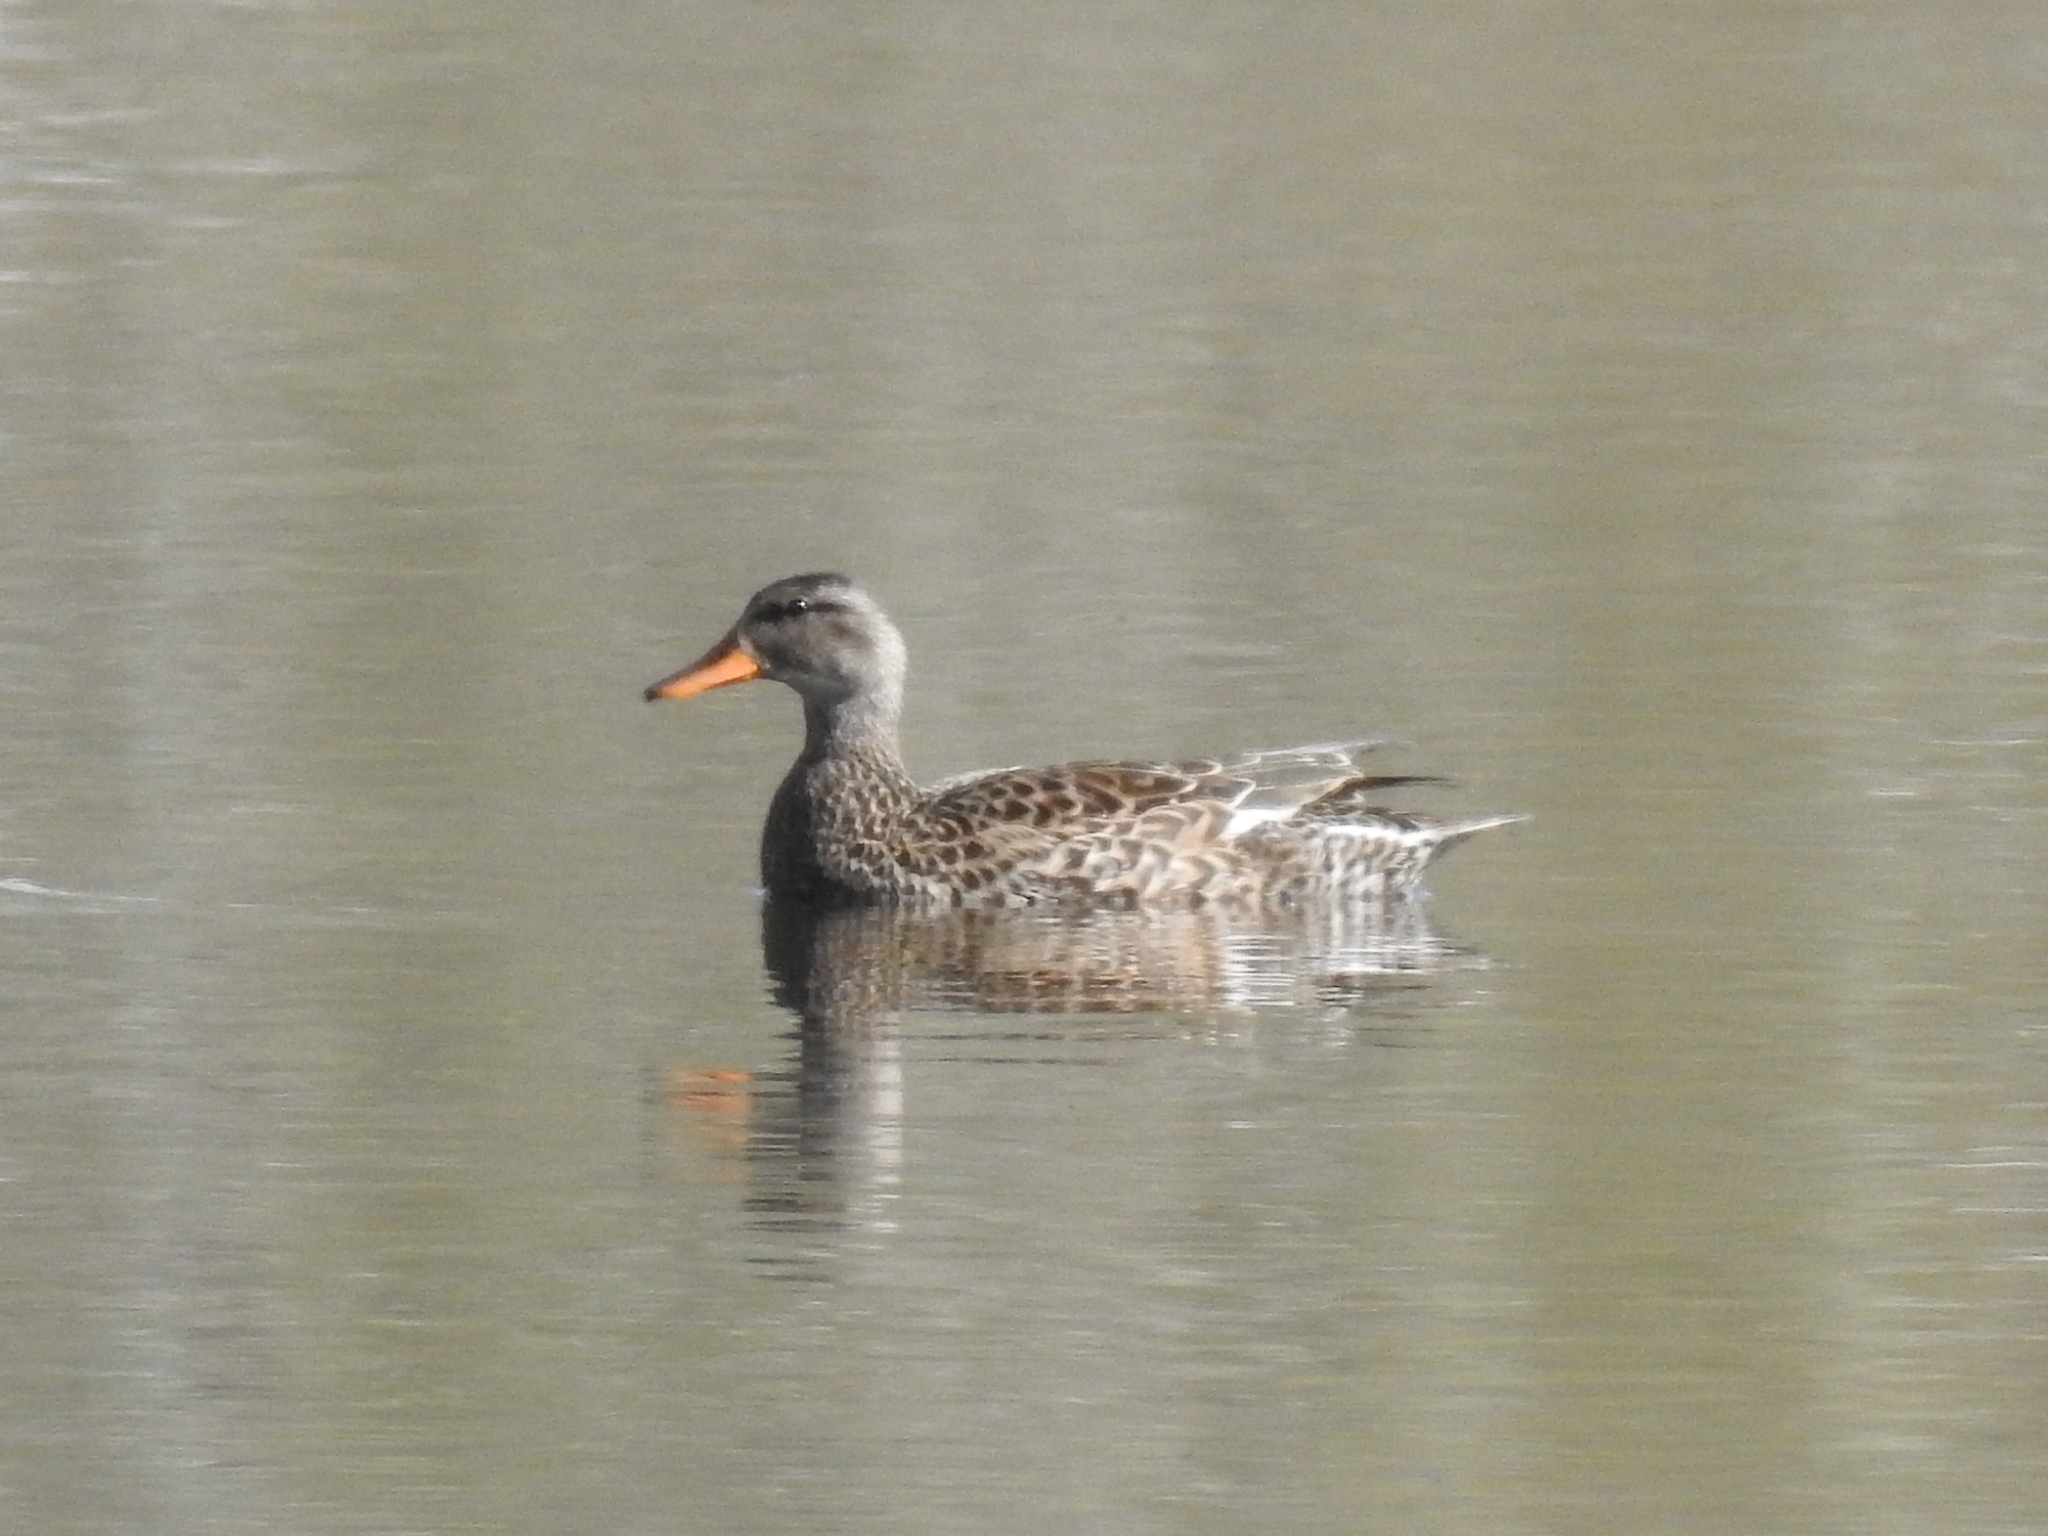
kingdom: Animalia
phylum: Chordata
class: Aves
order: Anseriformes
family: Anatidae
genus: Mareca
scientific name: Mareca strepera
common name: Gadwall
